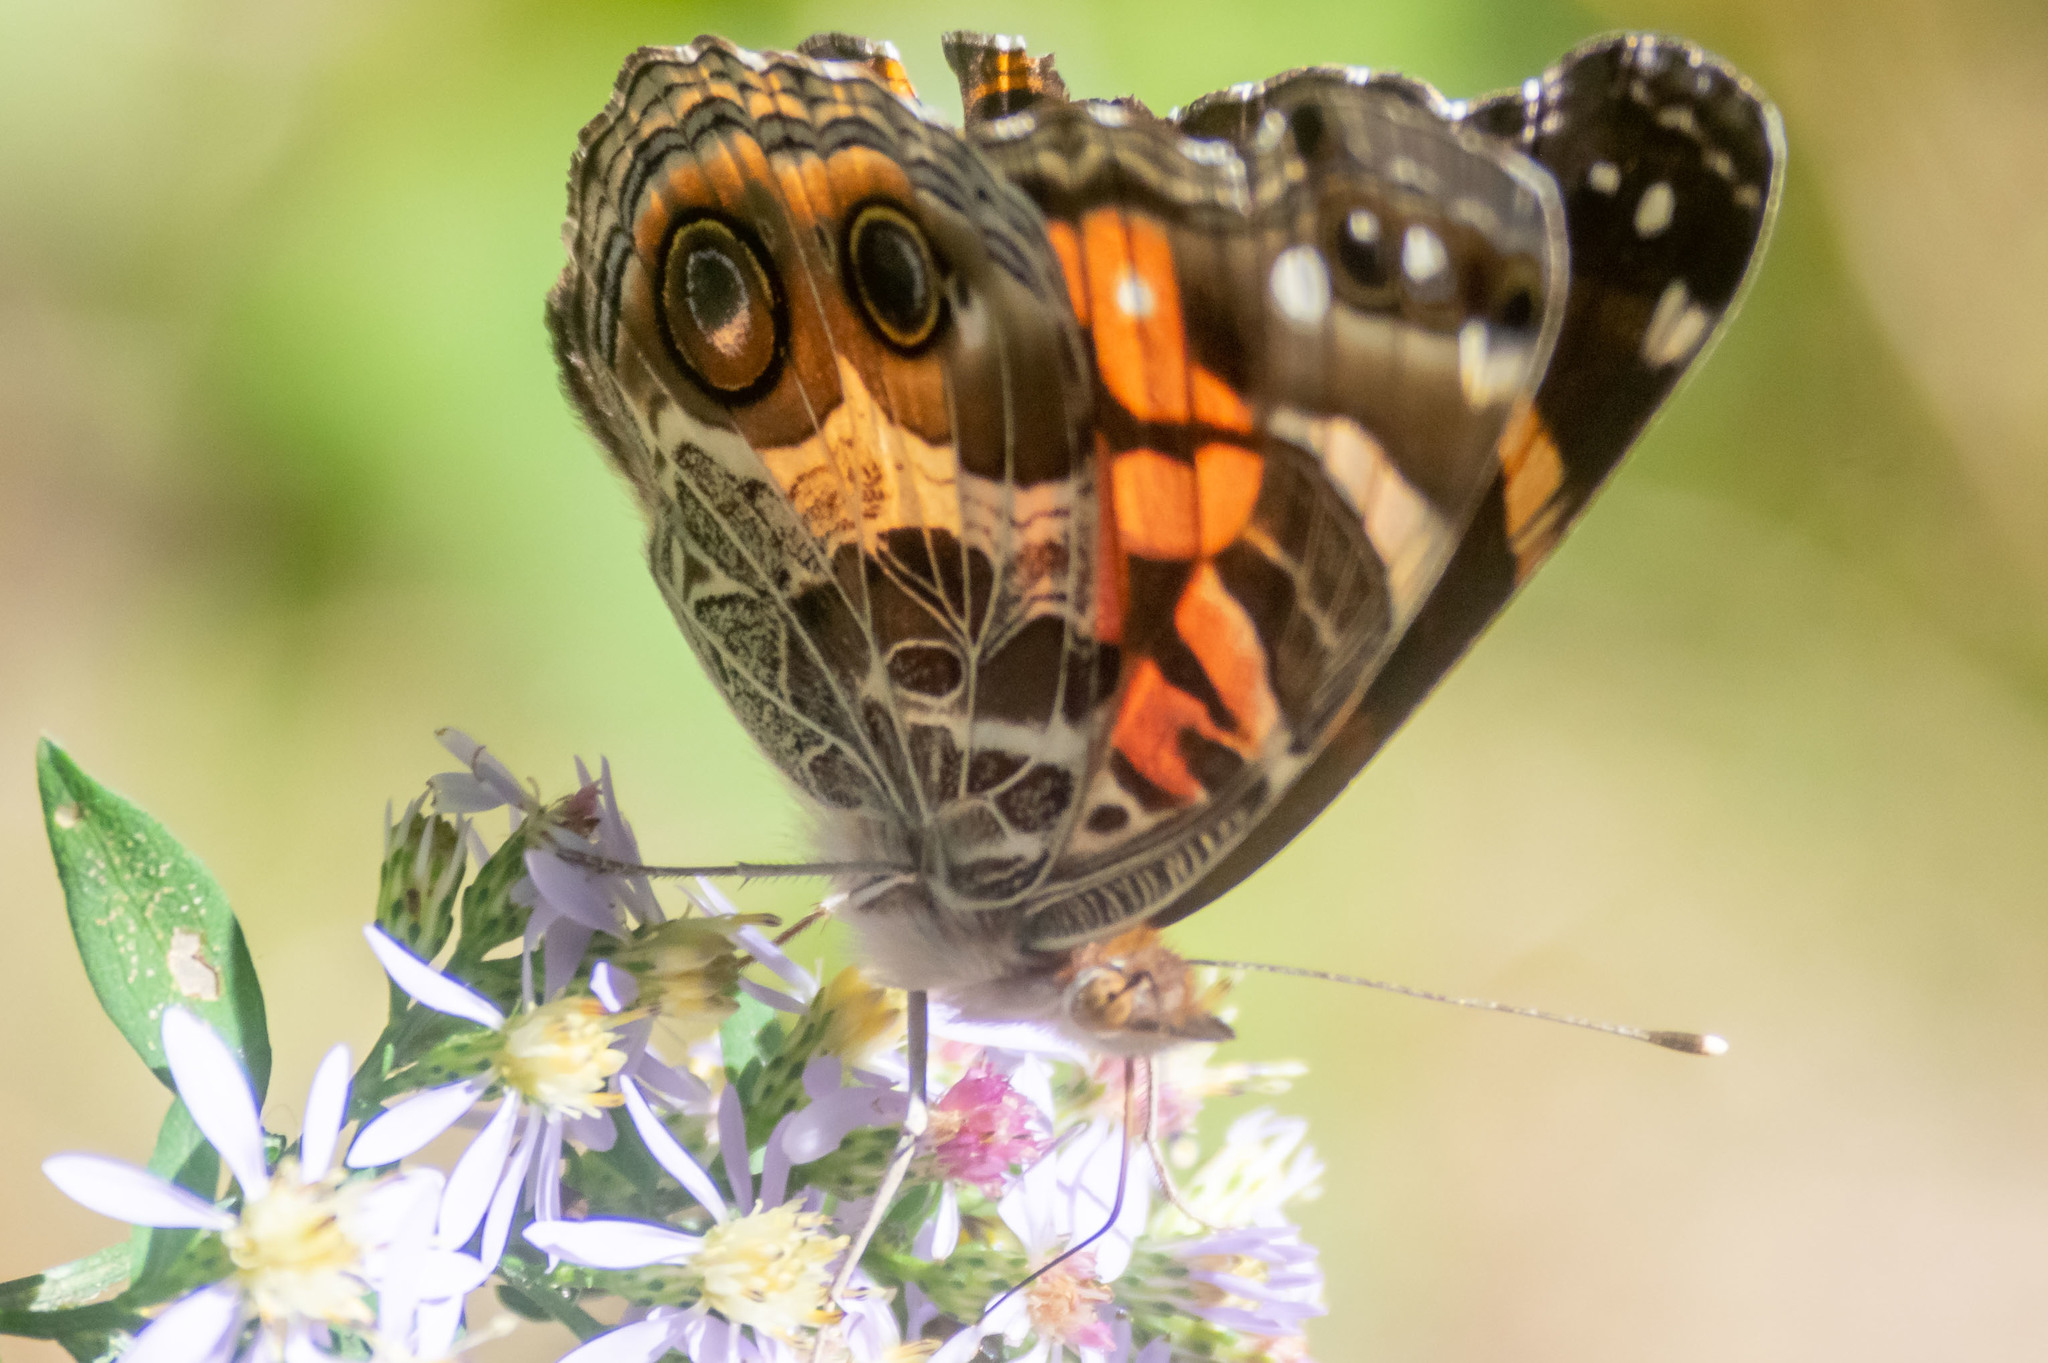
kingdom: Animalia
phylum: Arthropoda
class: Insecta
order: Lepidoptera
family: Nymphalidae
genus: Vanessa
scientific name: Vanessa virginiensis
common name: American lady
